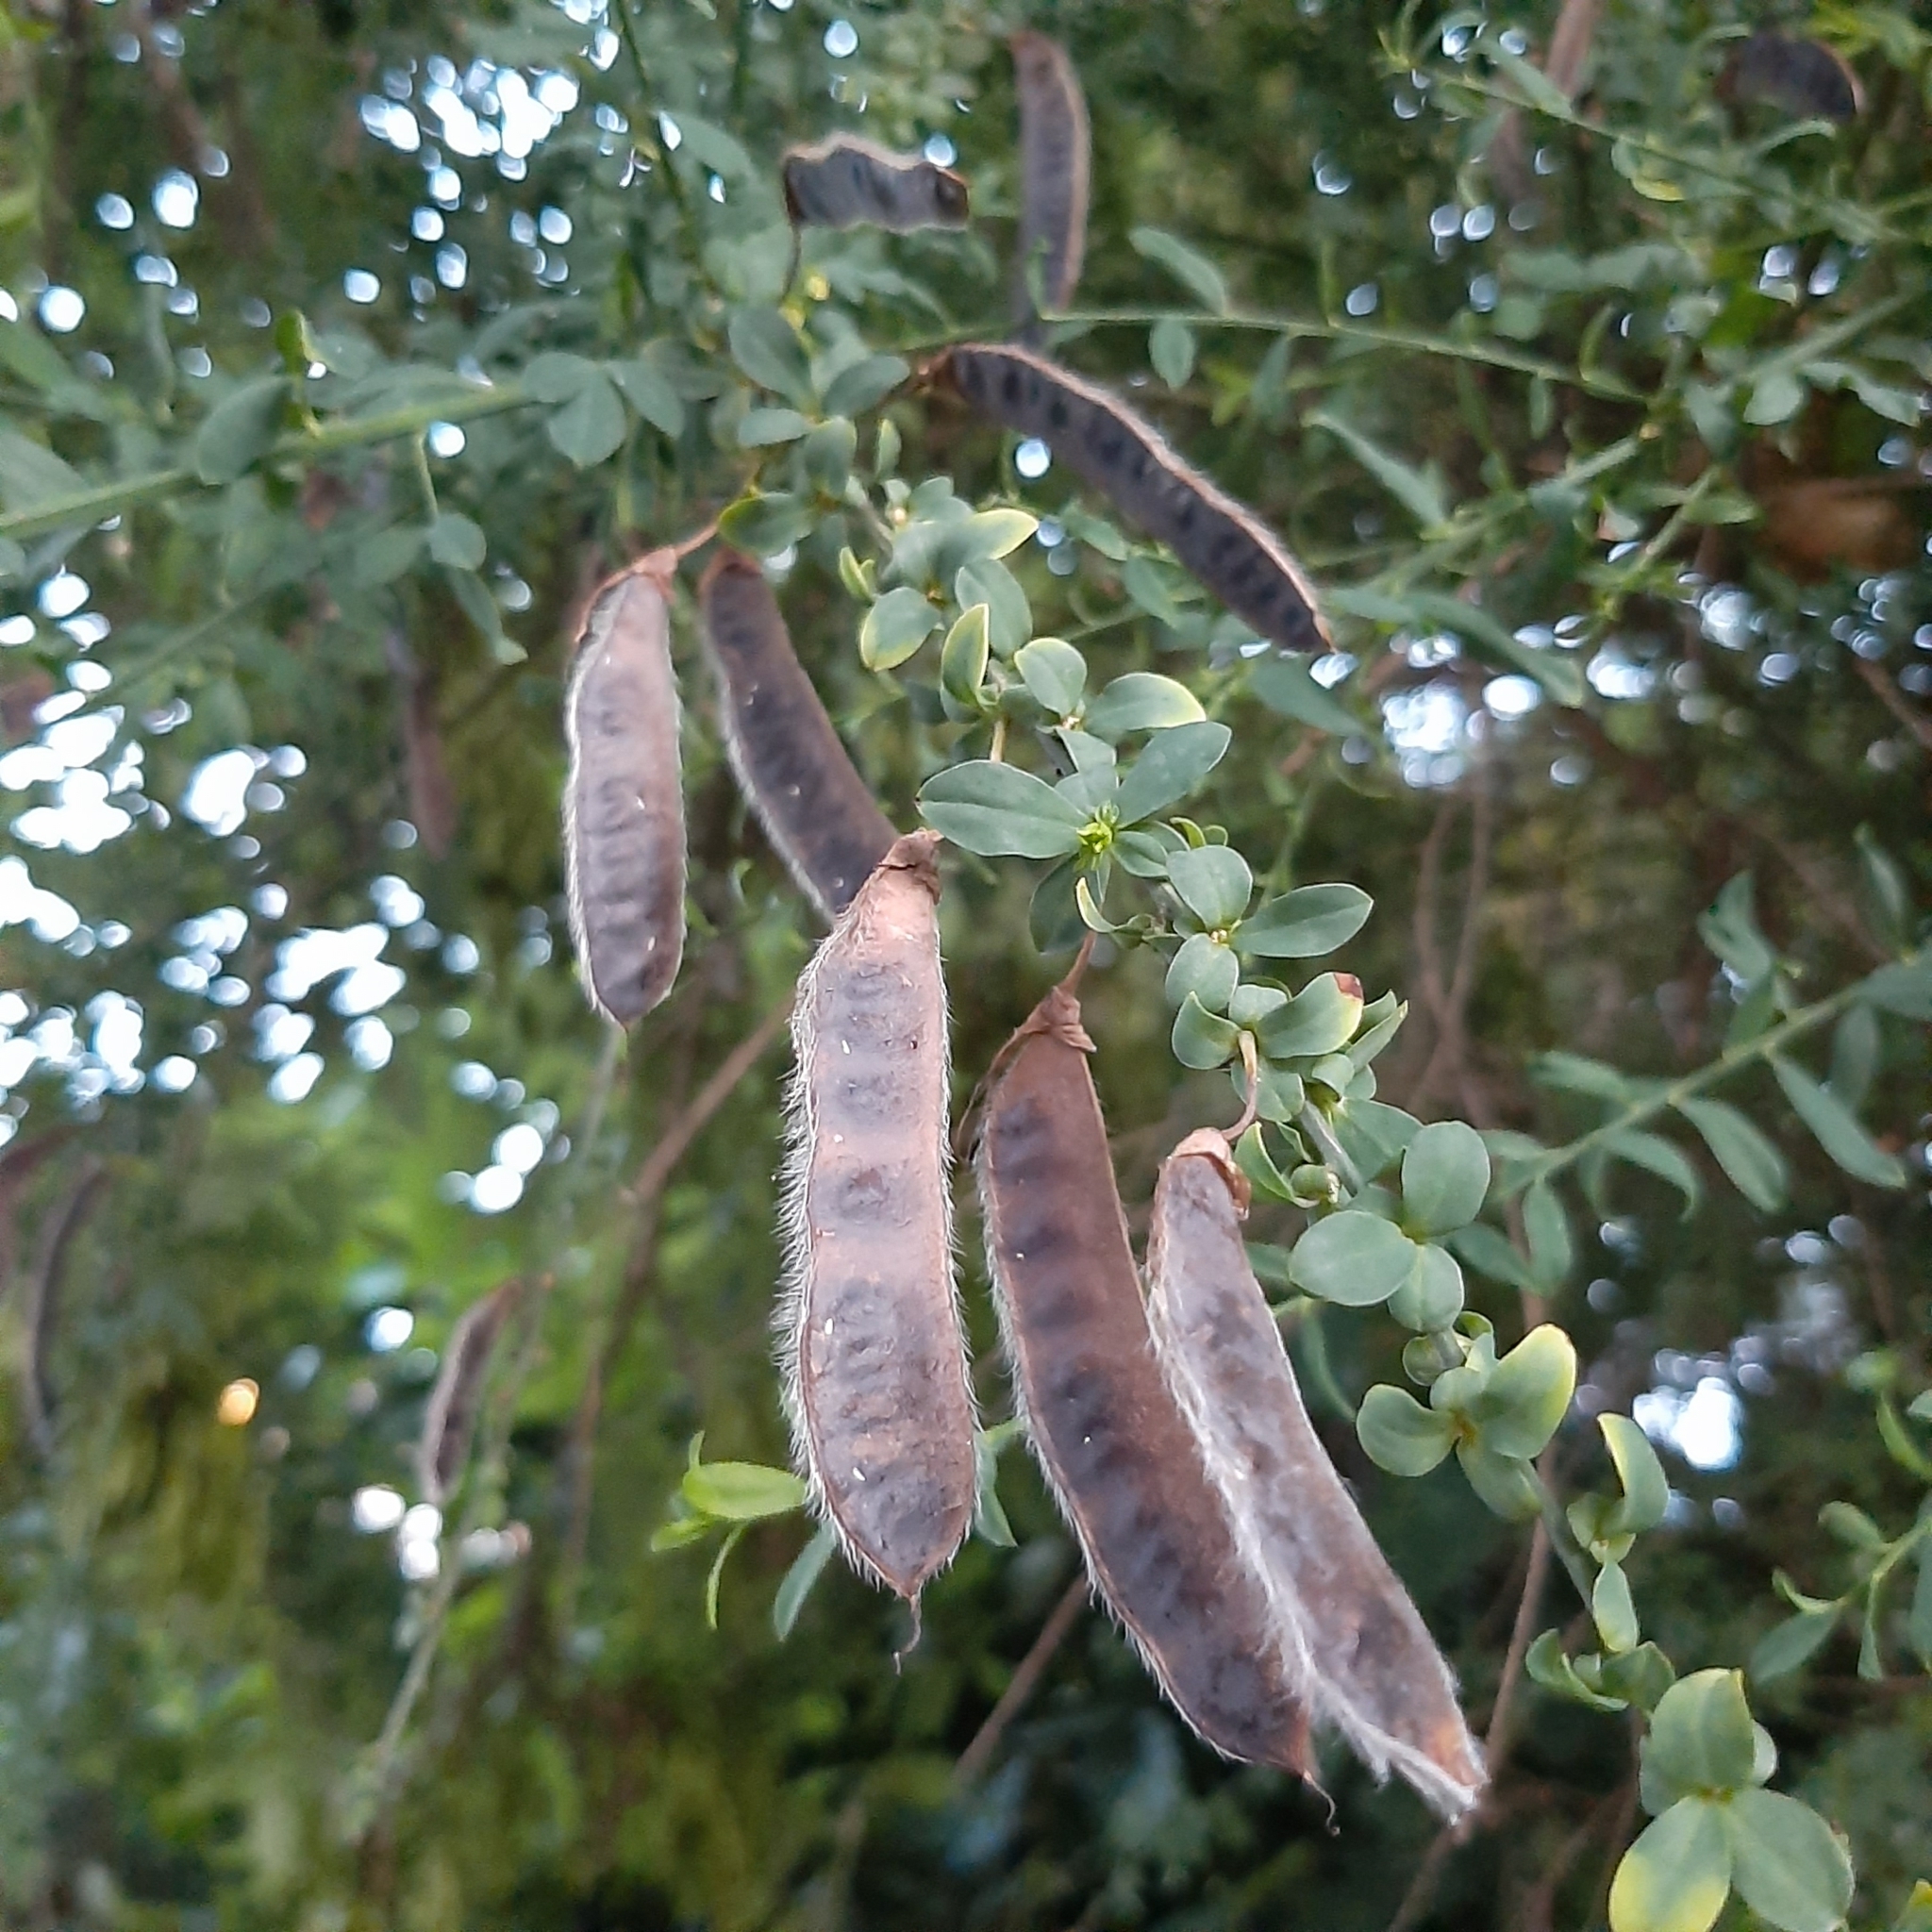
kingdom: Plantae
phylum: Tracheophyta
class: Magnoliopsida
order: Fabales
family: Fabaceae
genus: Cytisus
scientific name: Cytisus scoparius
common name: Scotch broom
